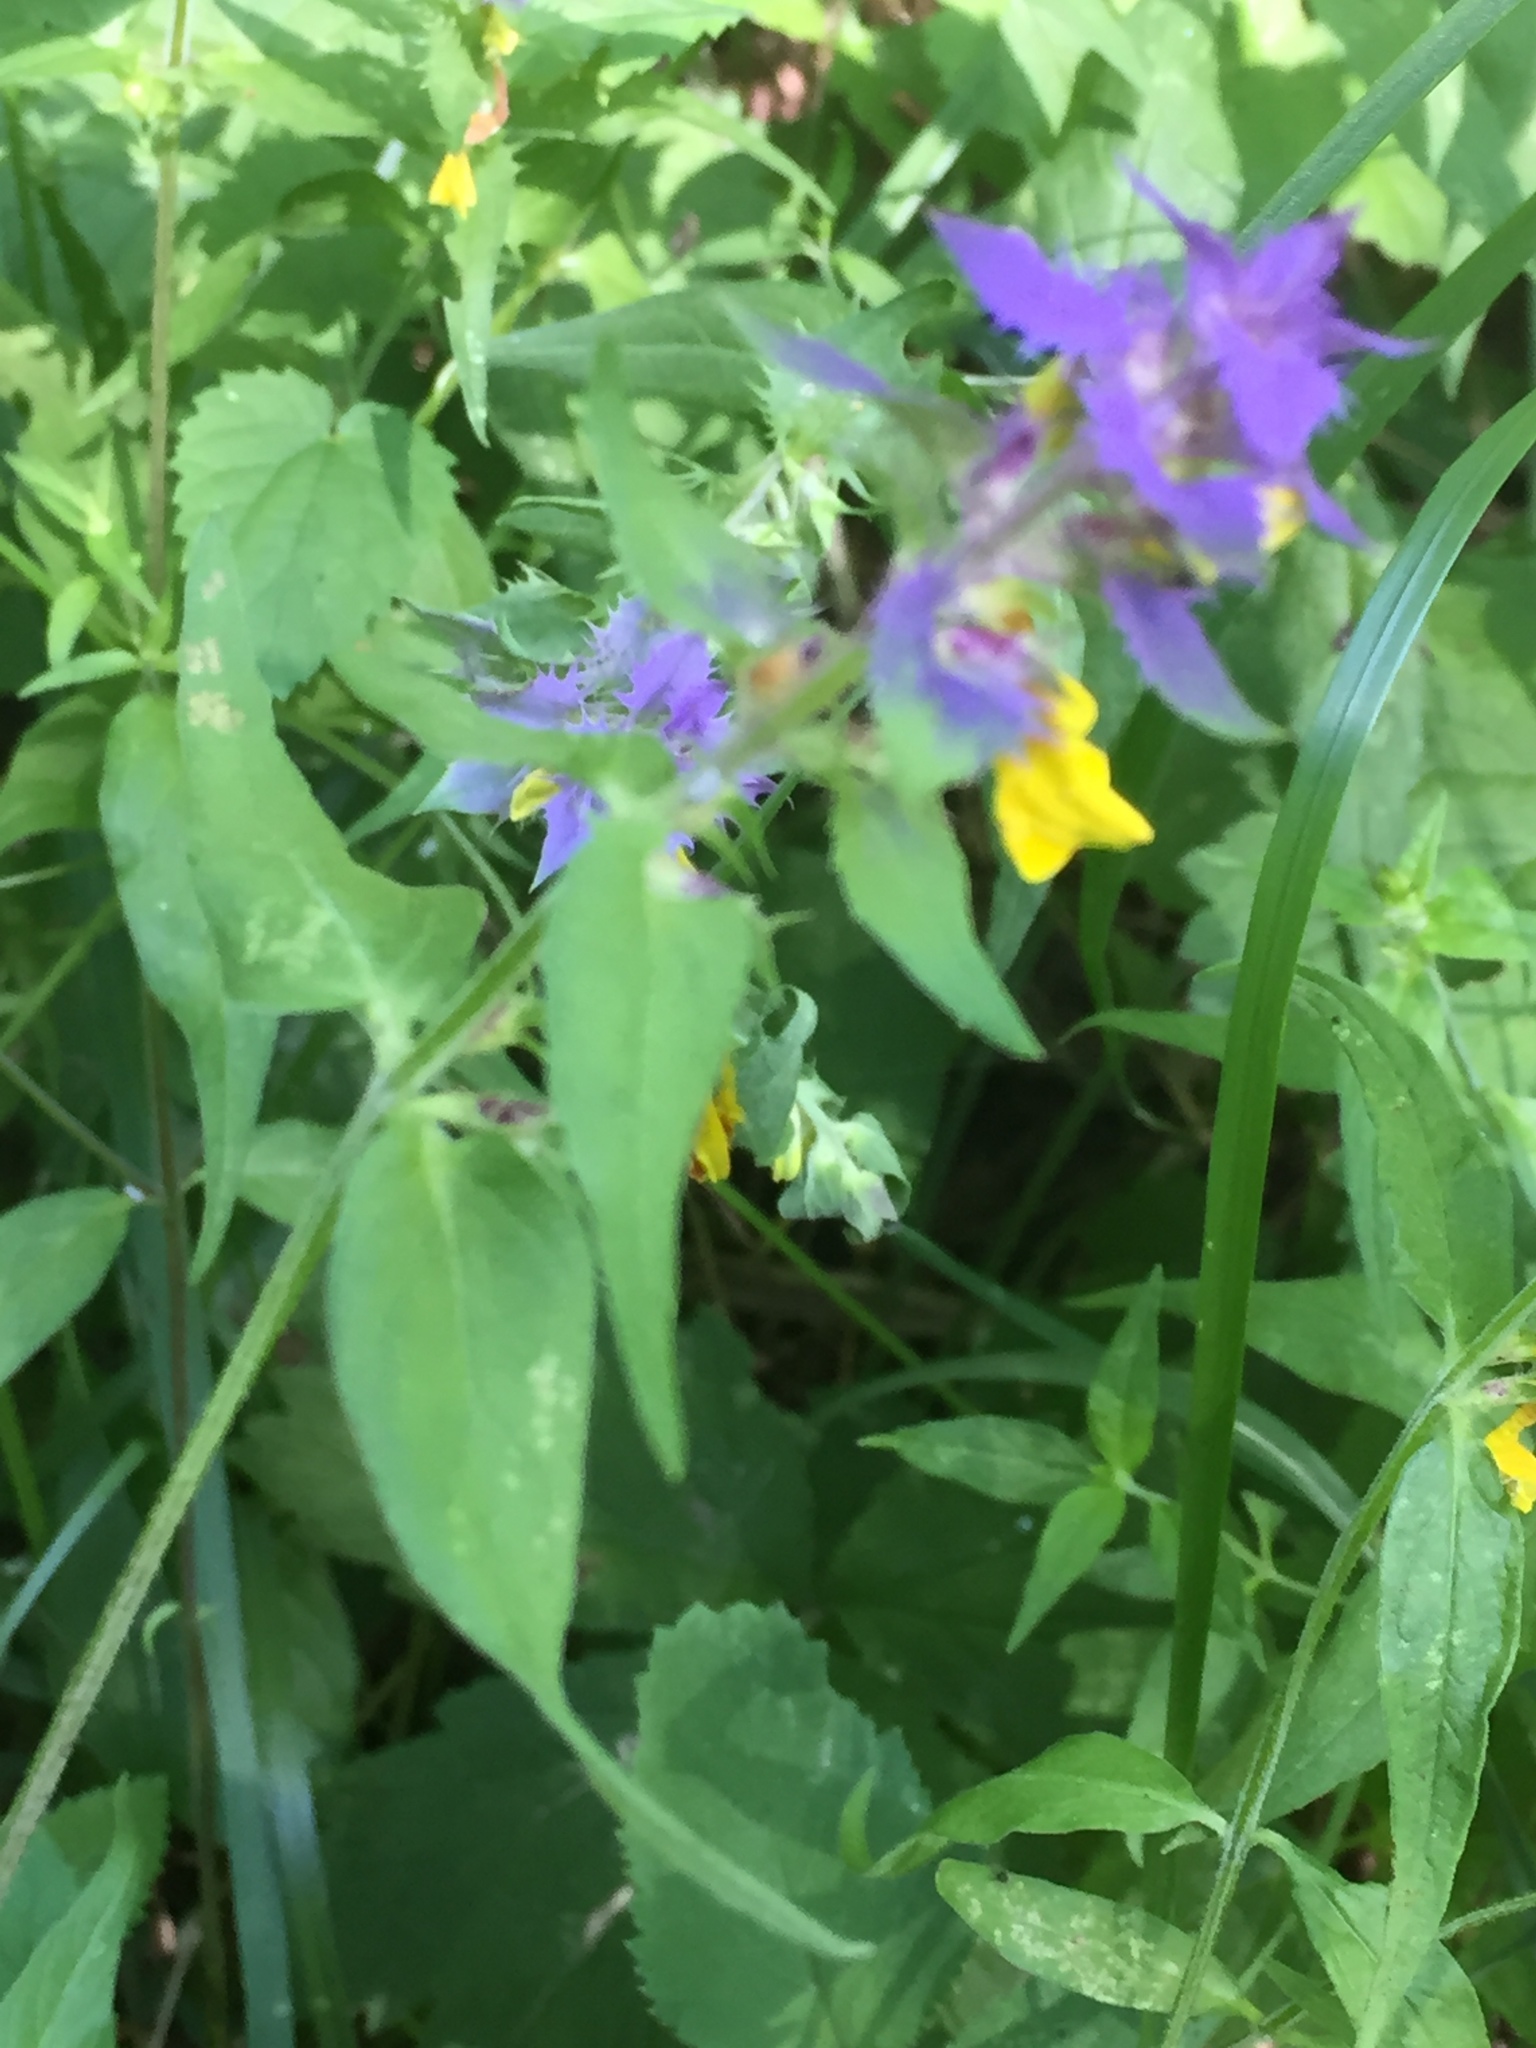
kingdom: Plantae
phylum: Tracheophyta
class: Magnoliopsida
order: Lamiales
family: Orobanchaceae
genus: Melampyrum
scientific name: Melampyrum nemorosum
